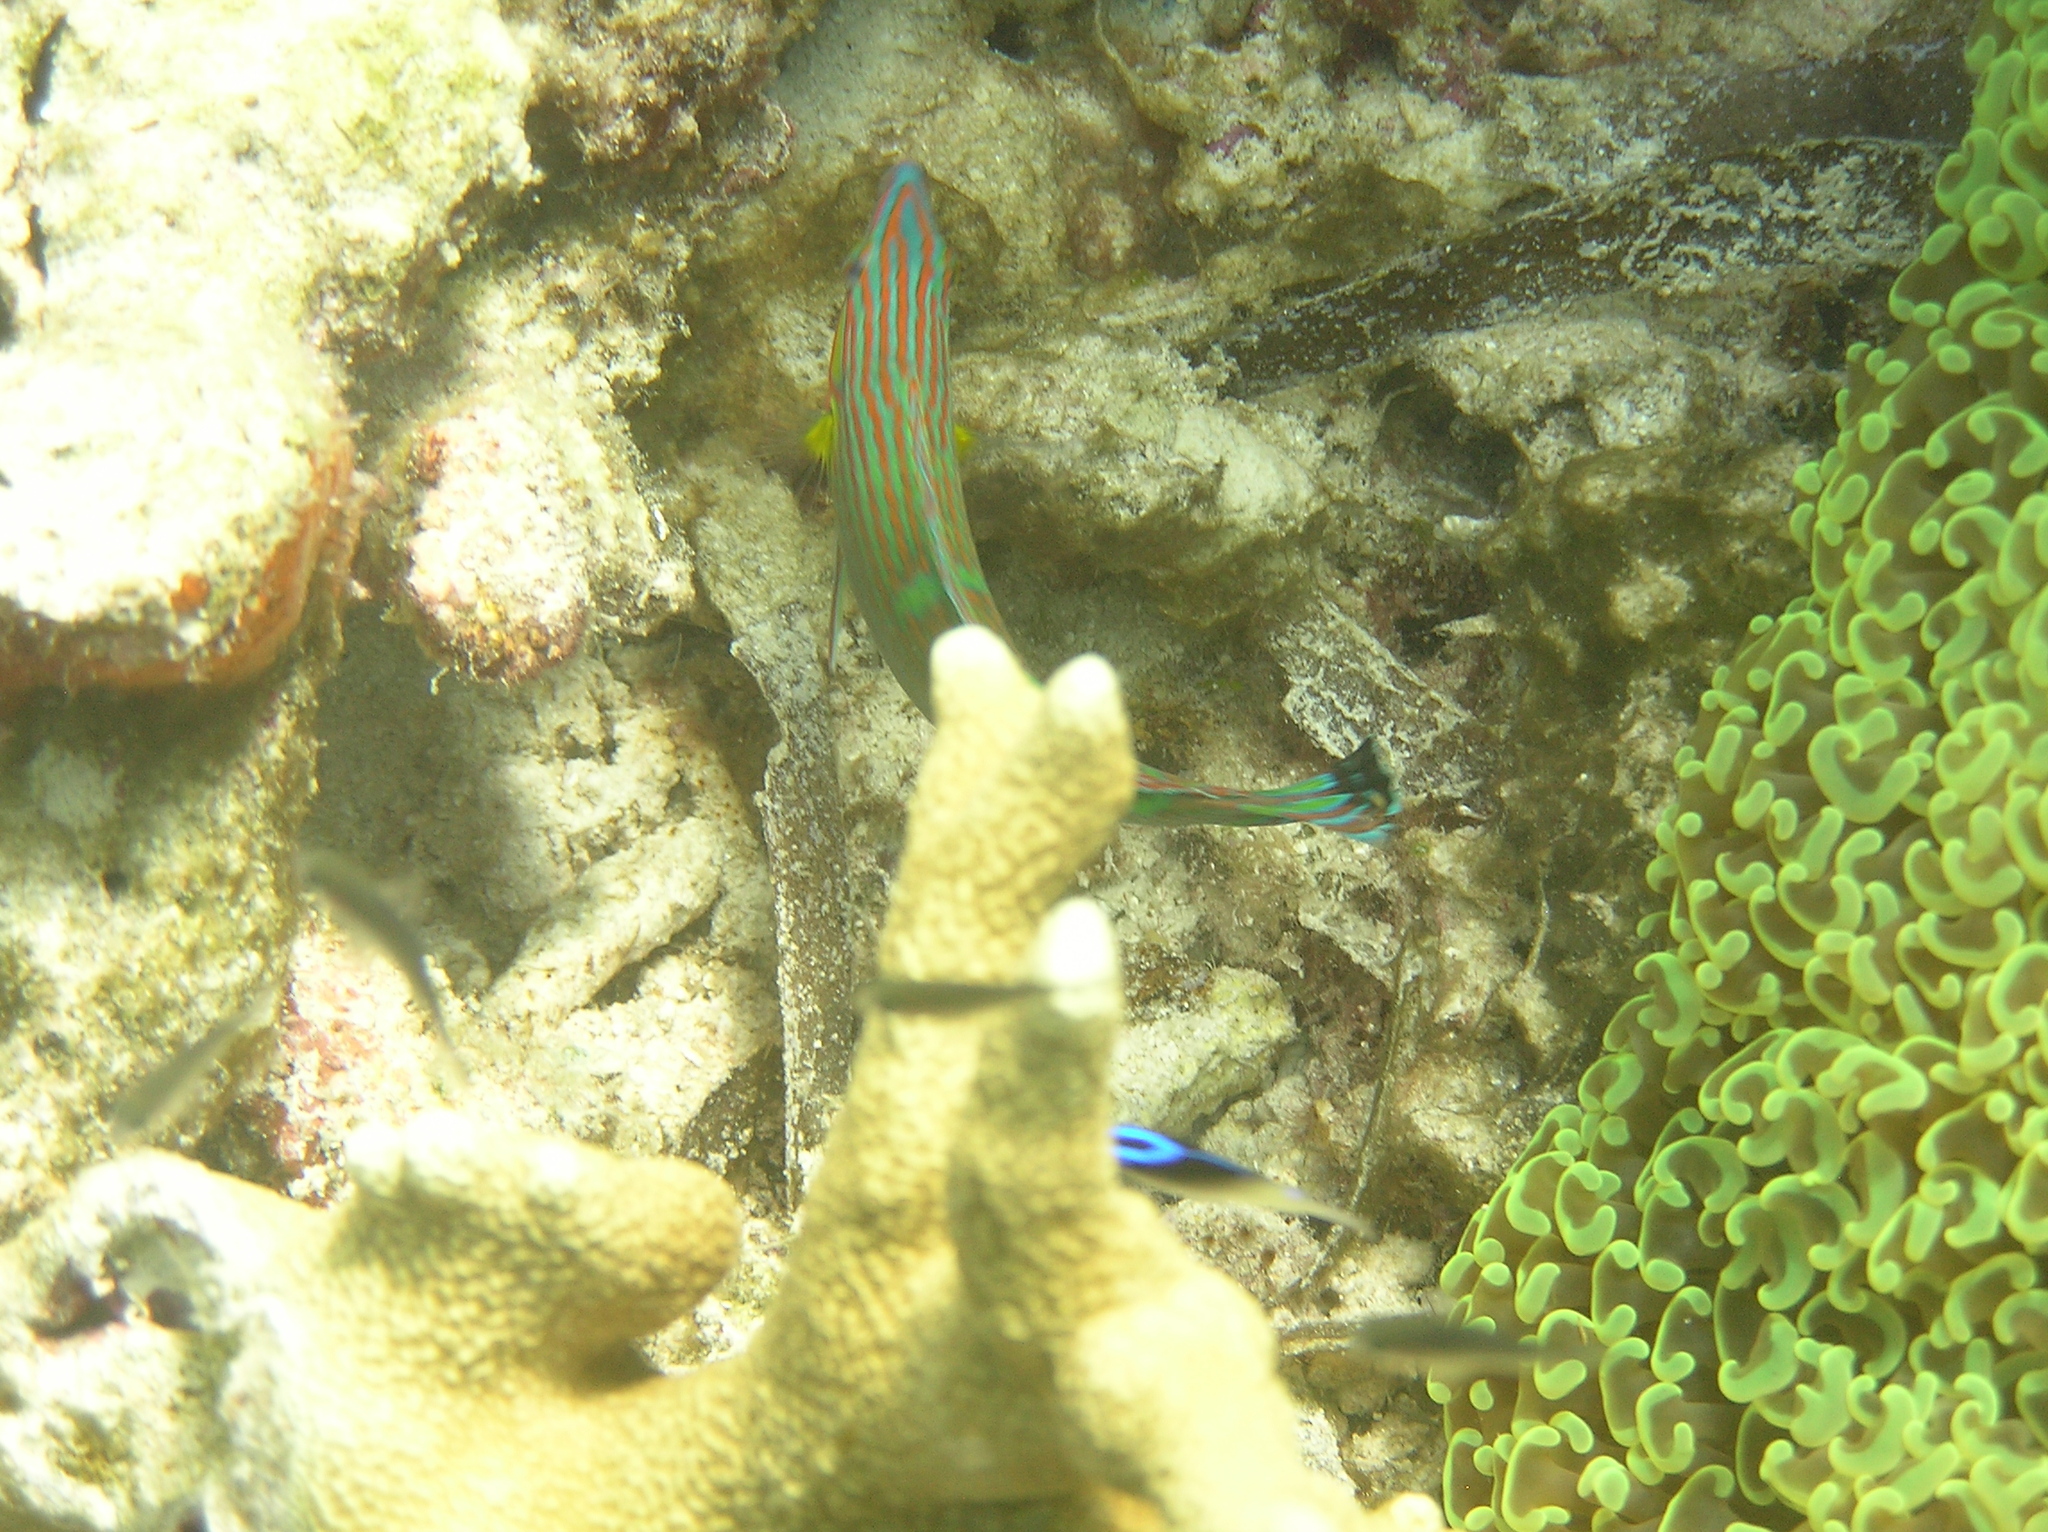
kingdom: Animalia
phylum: Chordata
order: Perciformes
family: Labridae
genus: Halichoeres
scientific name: Halichoeres melanurus
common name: Hoeven's wrasse
